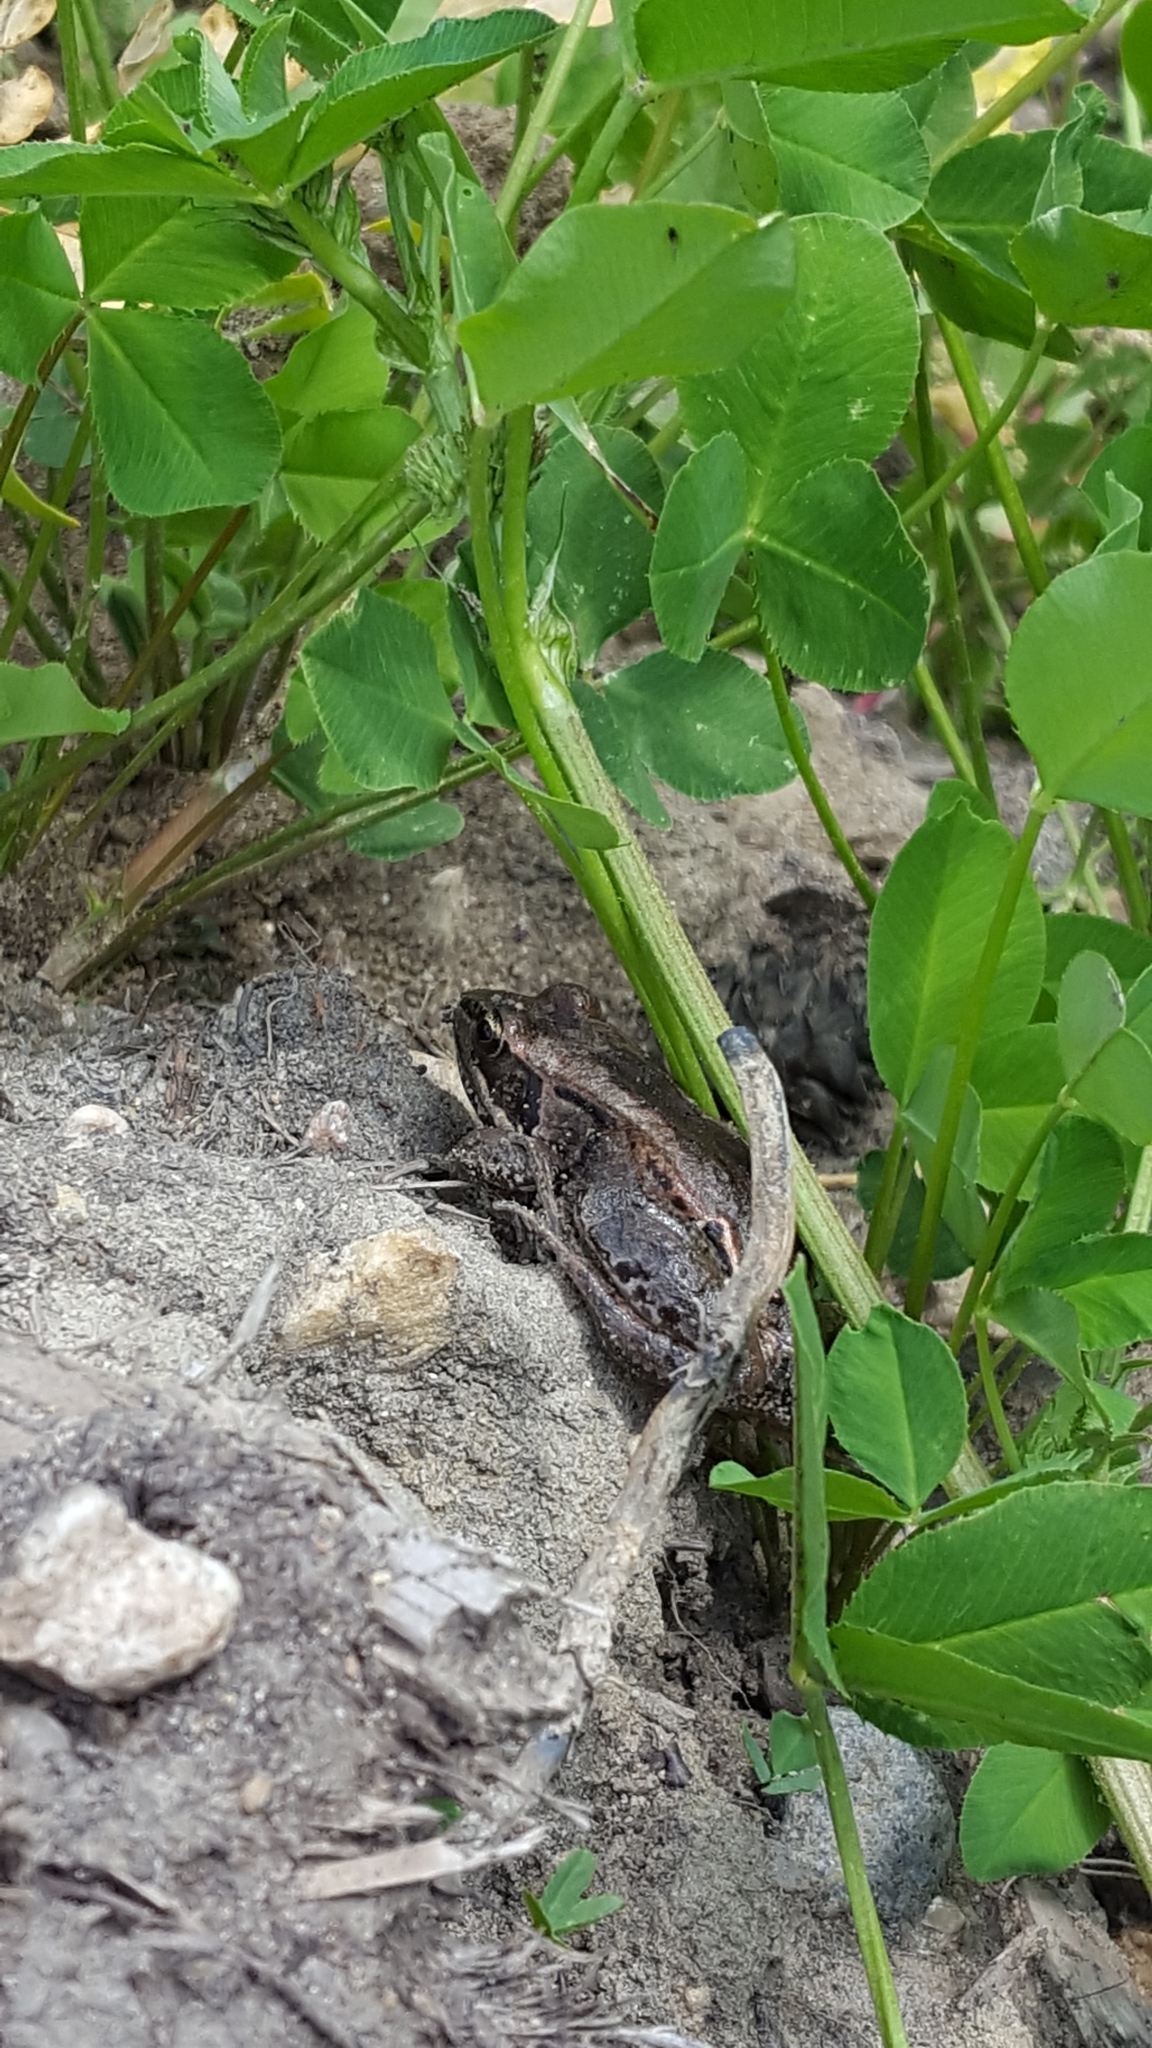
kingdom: Animalia
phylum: Chordata
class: Amphibia
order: Anura
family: Ranidae
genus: Lithobates
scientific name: Lithobates sylvaticus
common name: Wood frog
